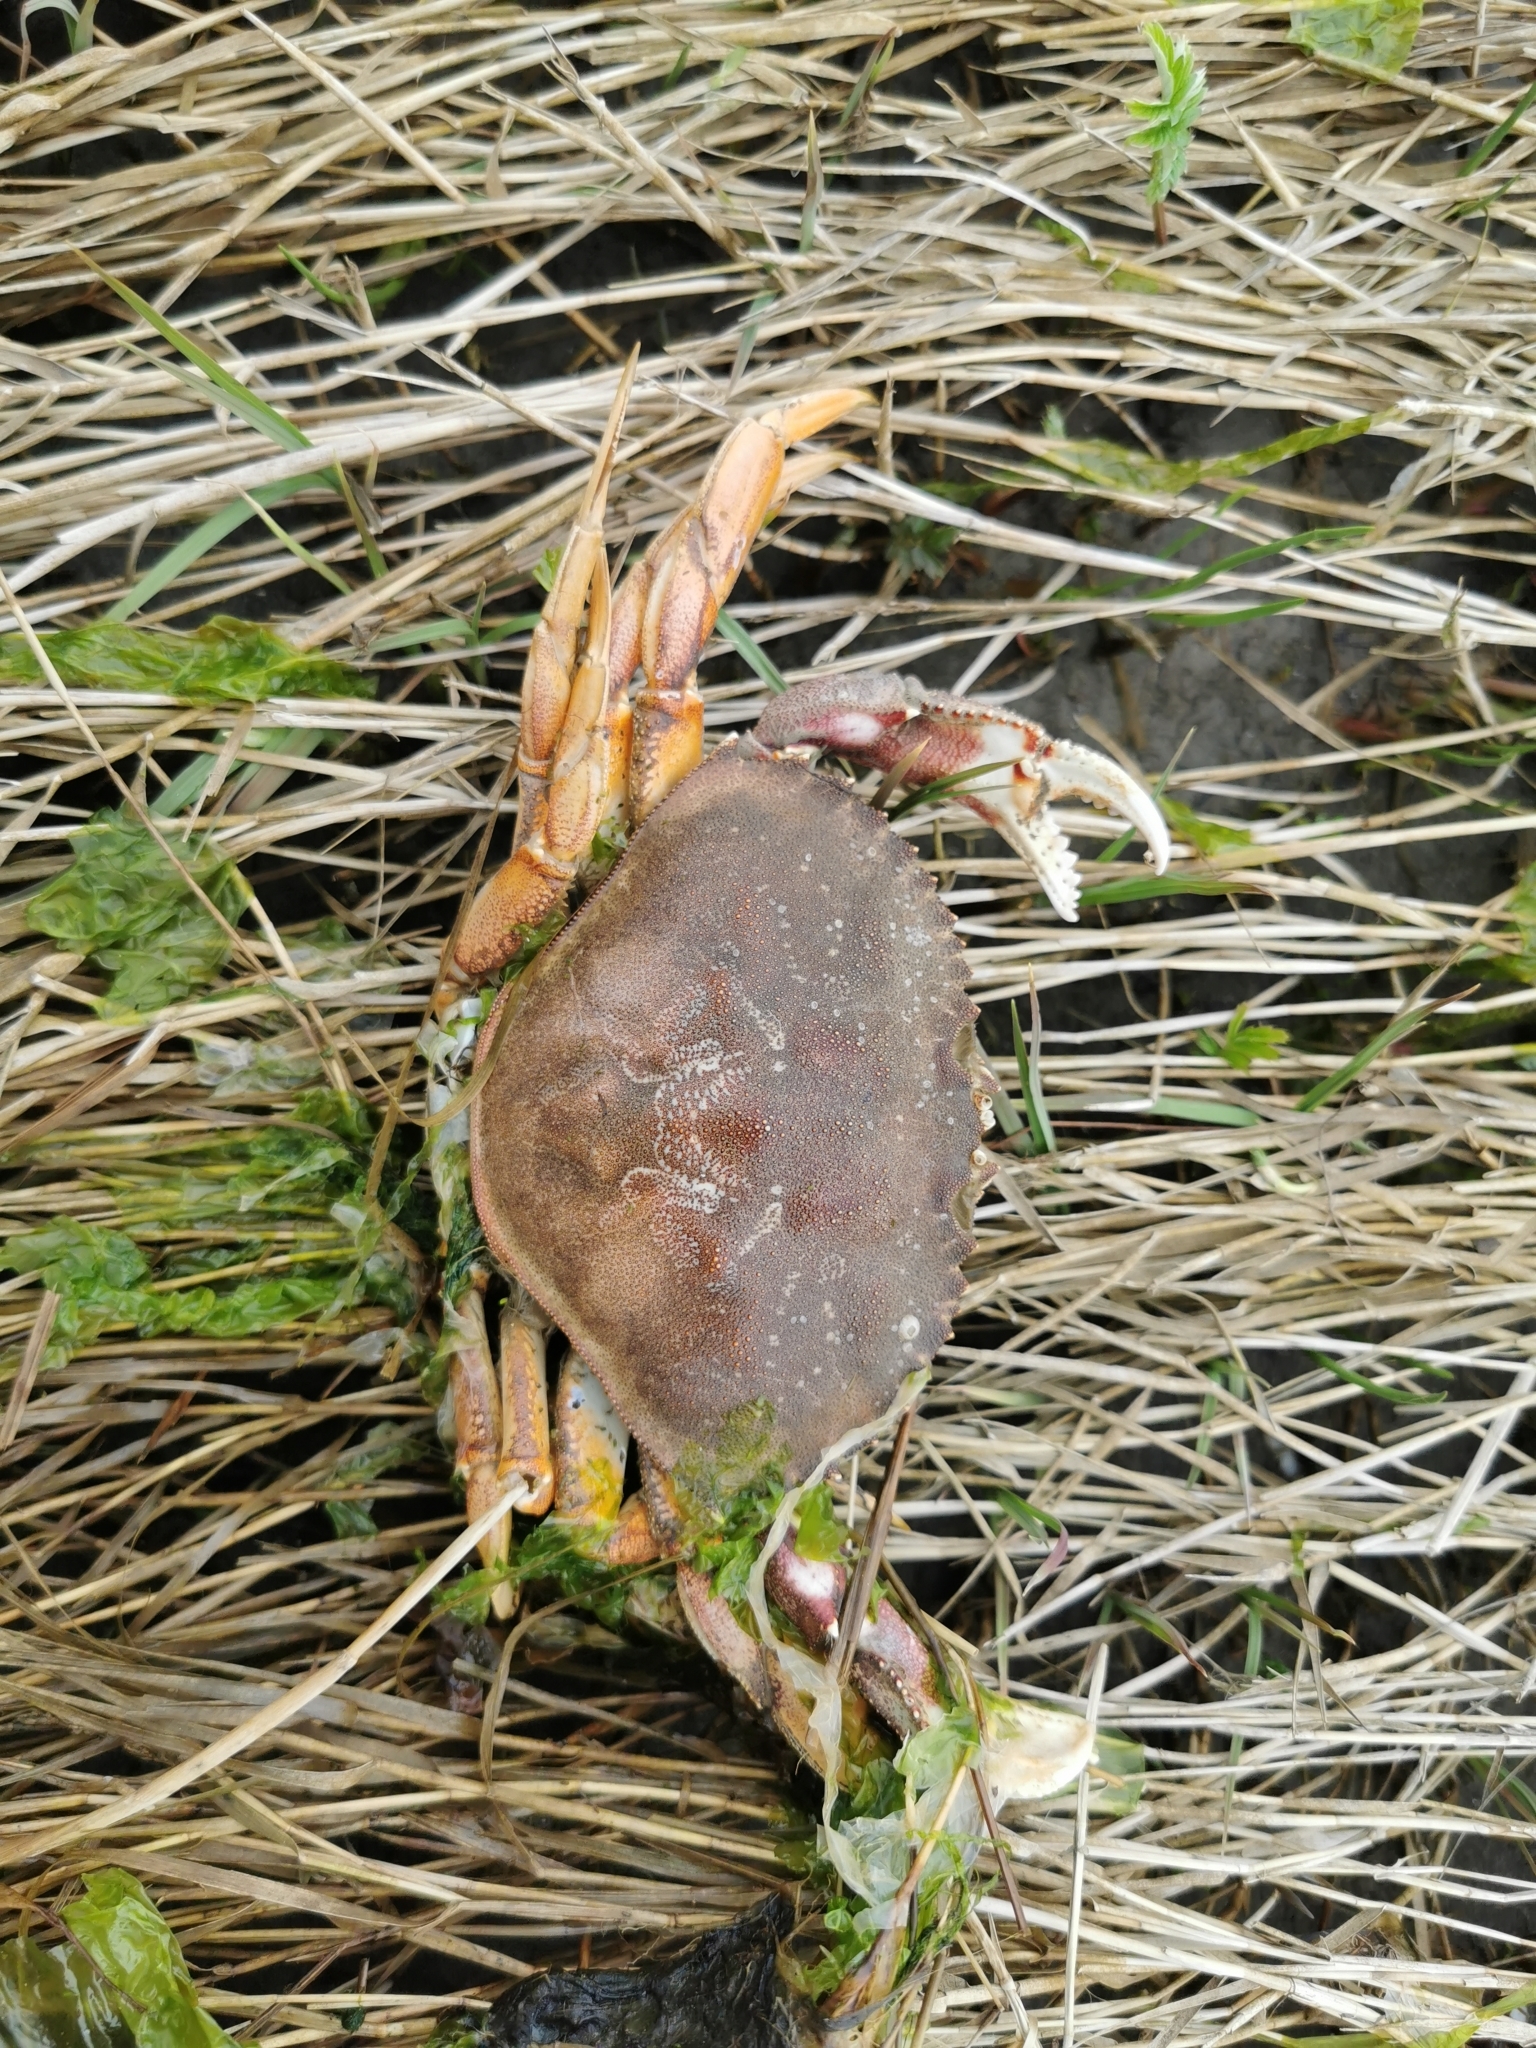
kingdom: Animalia
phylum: Arthropoda
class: Malacostraca
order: Decapoda
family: Cancridae
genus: Metacarcinus
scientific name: Metacarcinus magister
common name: Californian crab
